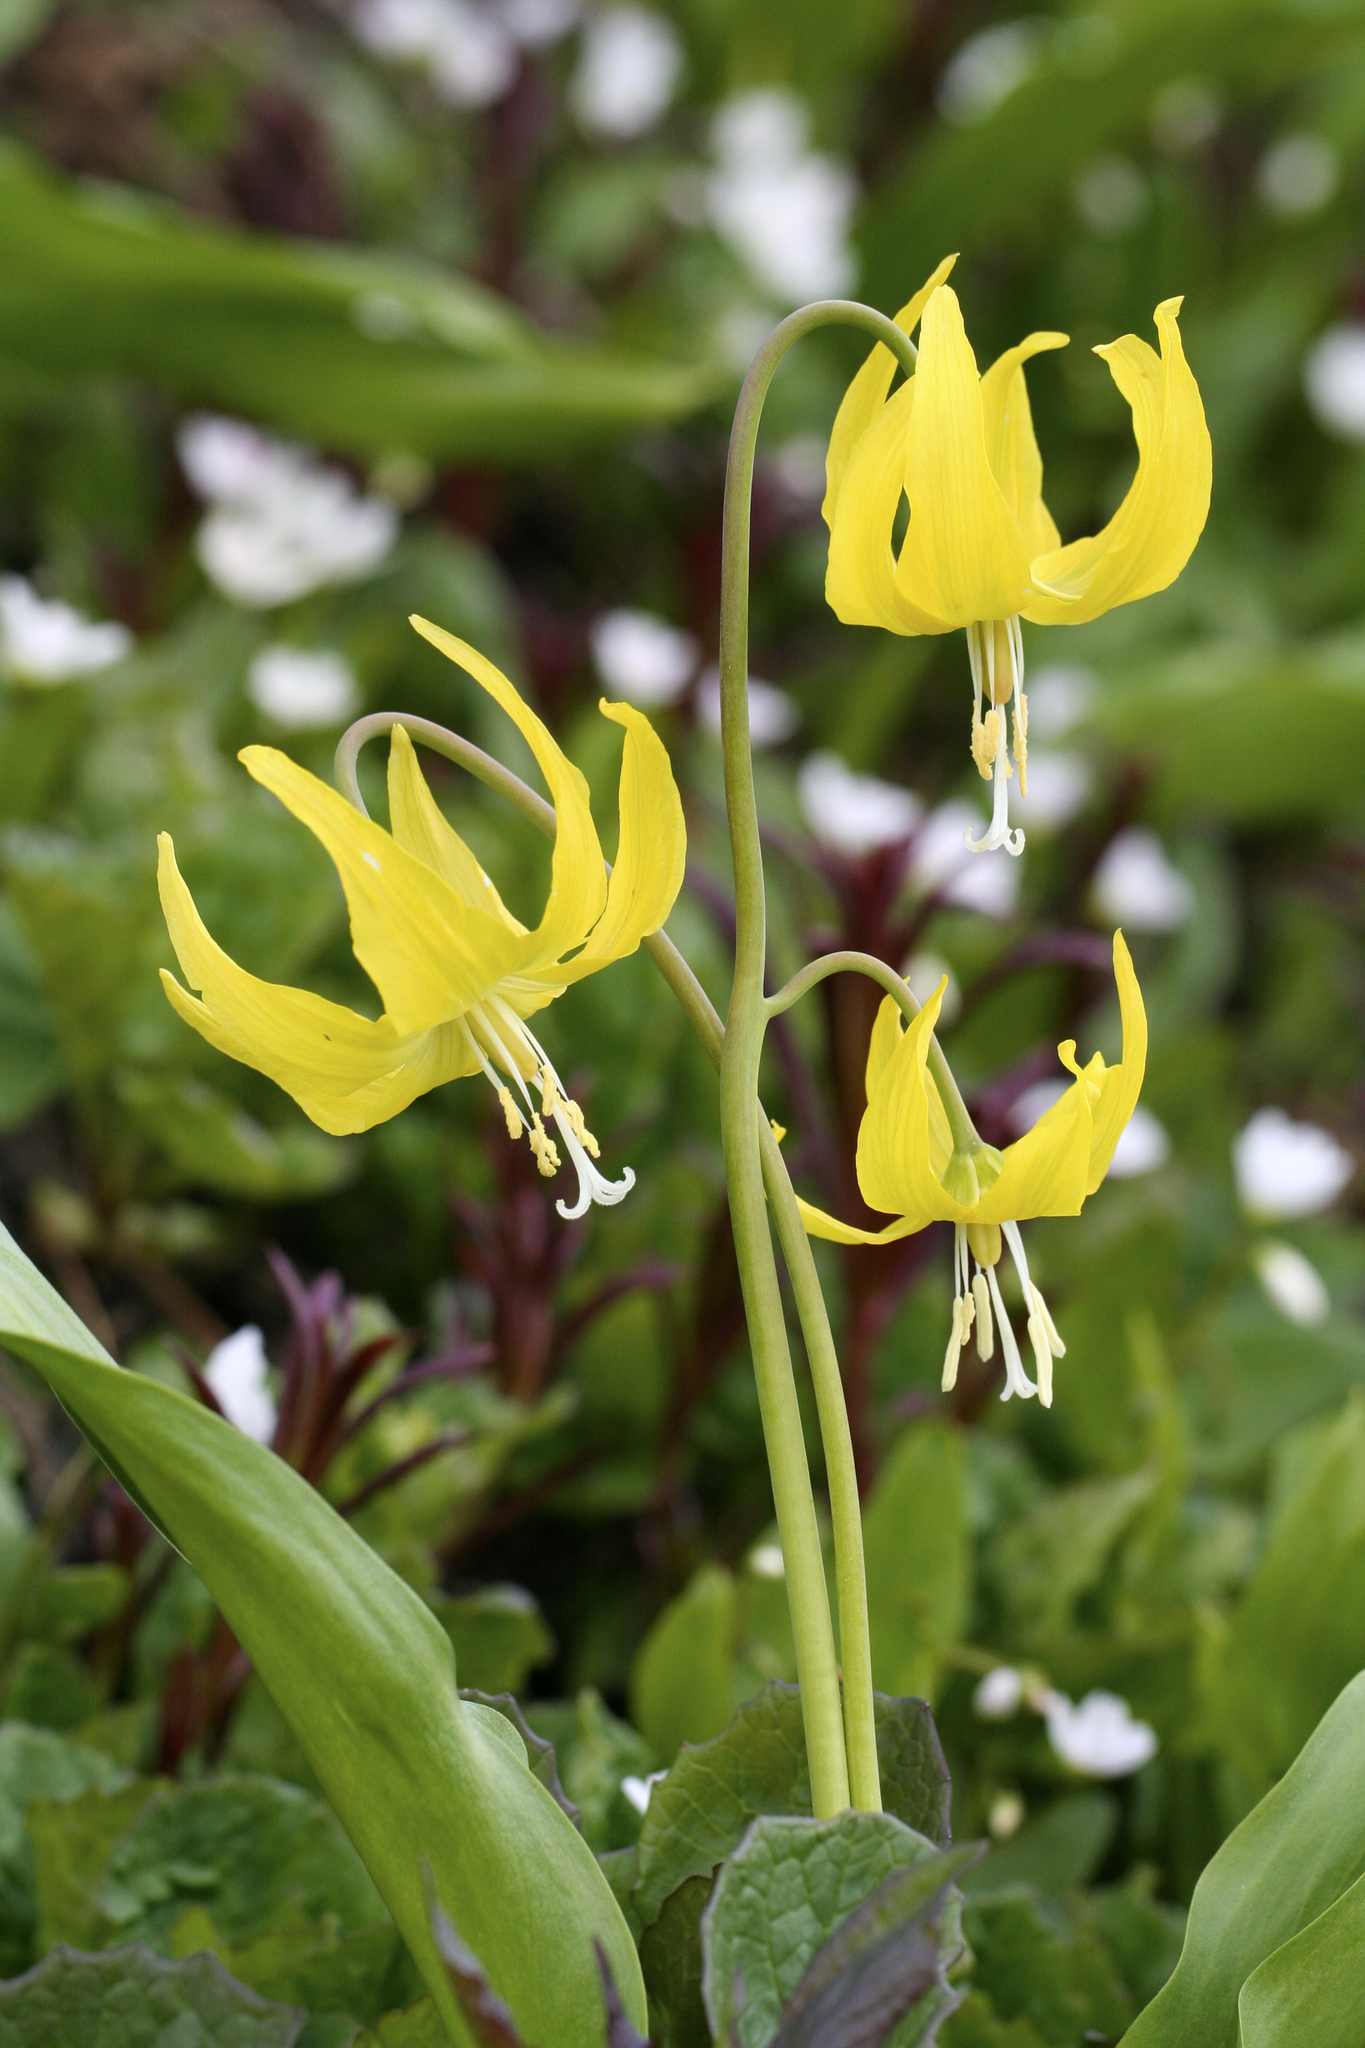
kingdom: Plantae
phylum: Tracheophyta
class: Liliopsida
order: Liliales
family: Liliaceae
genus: Erythronium
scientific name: Erythronium grandiflorum
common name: Avalanche-lily
